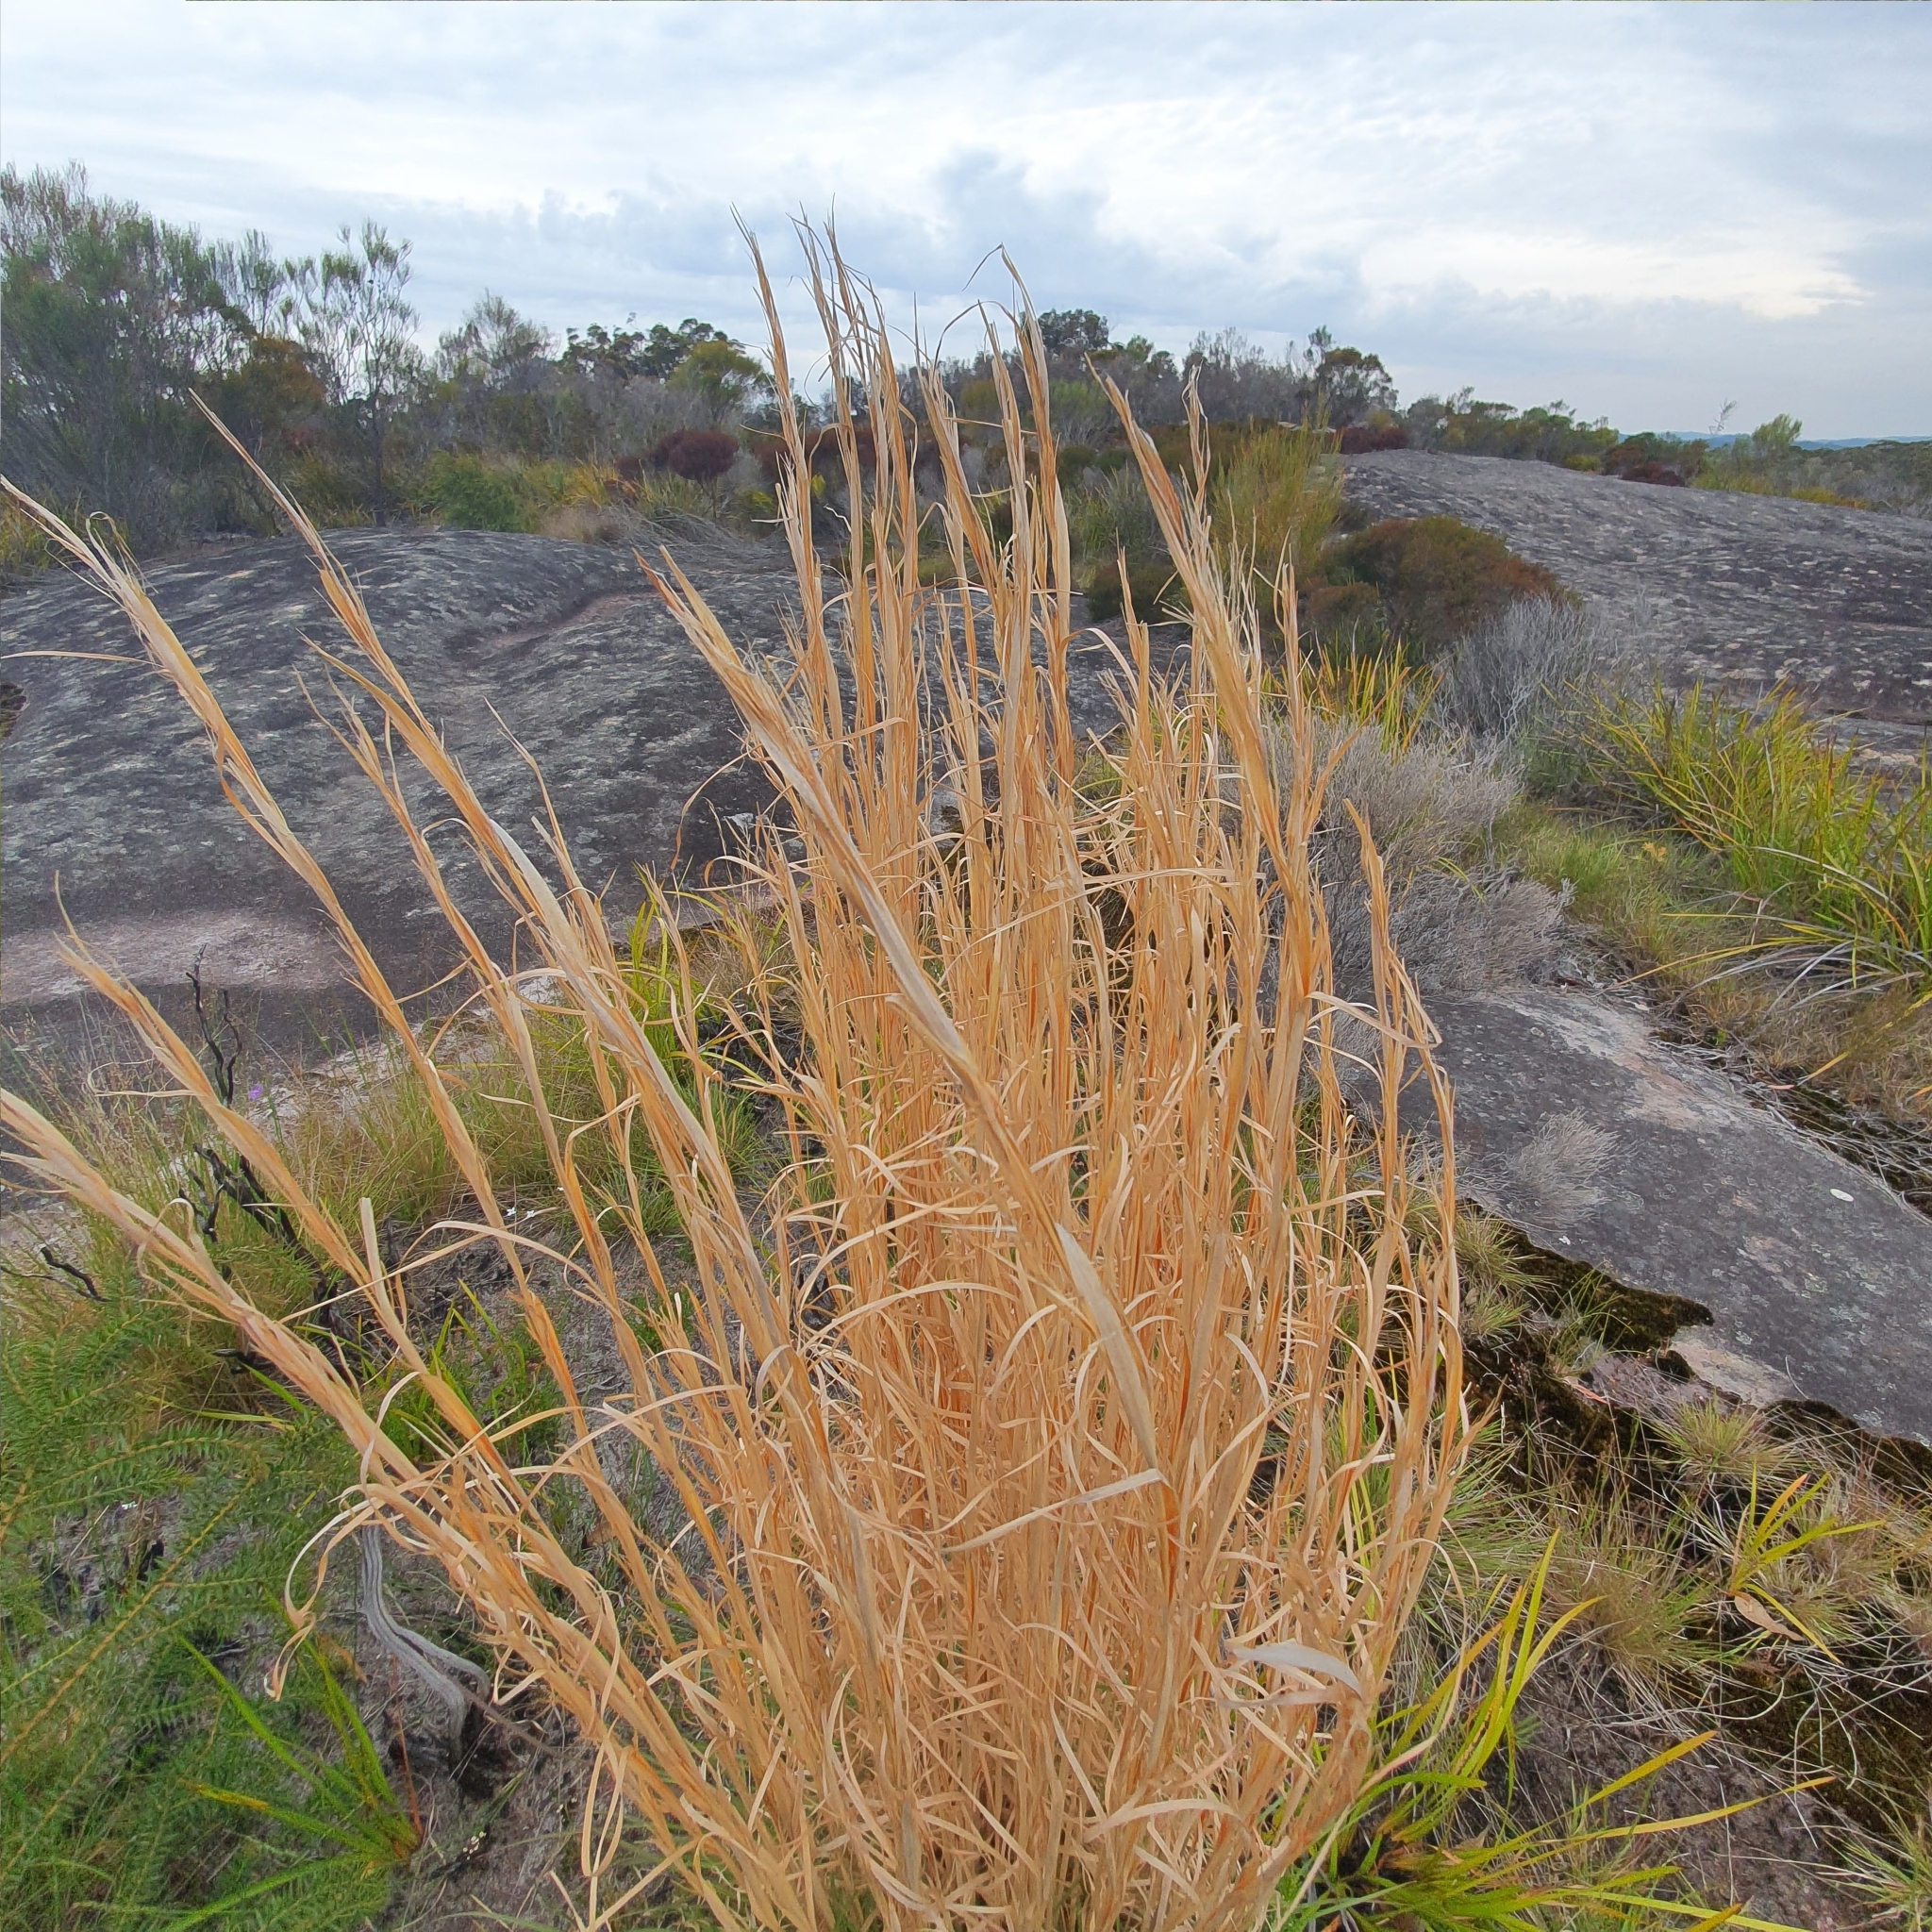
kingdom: Plantae
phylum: Tracheophyta
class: Liliopsida
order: Poales
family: Poaceae
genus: Andropogon
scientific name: Andropogon virginicus
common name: Broomsedge bluestem
